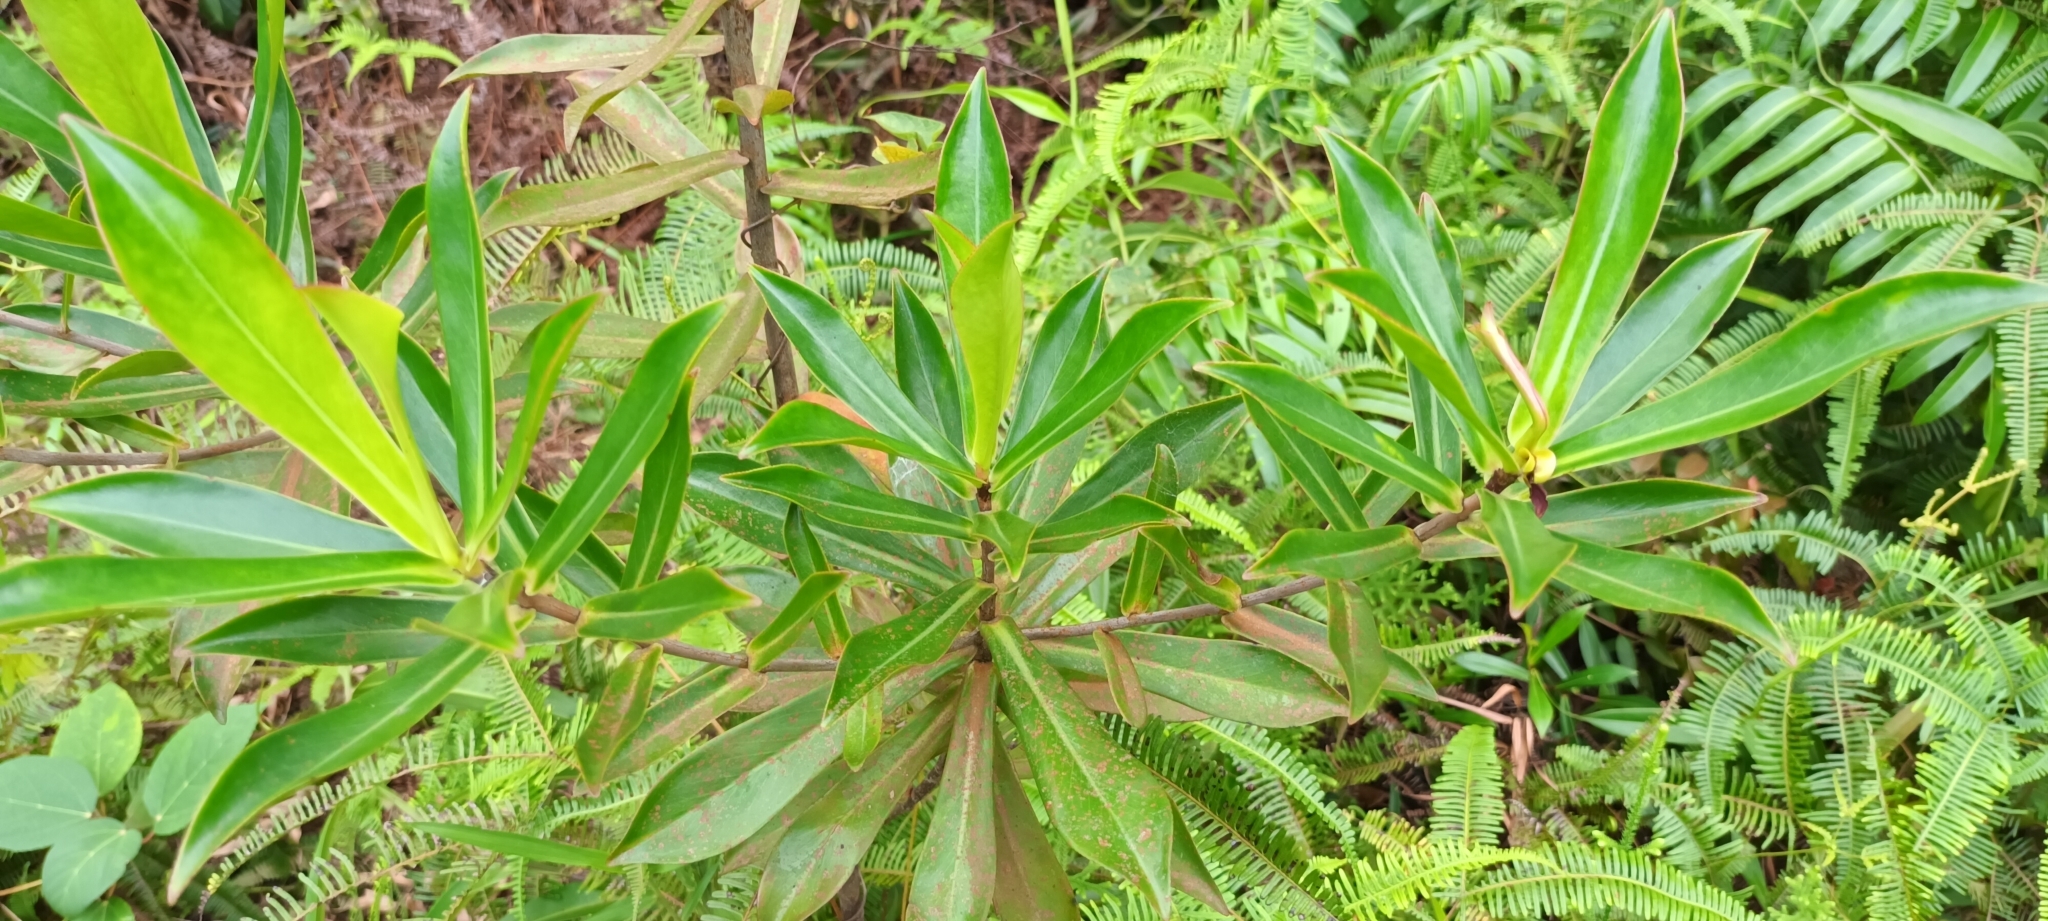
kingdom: Plantae
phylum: Tracheophyta
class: Magnoliopsida
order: Malpighiales
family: Bonnetiaceae
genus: Ploiarium
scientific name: Ploiarium elegans
